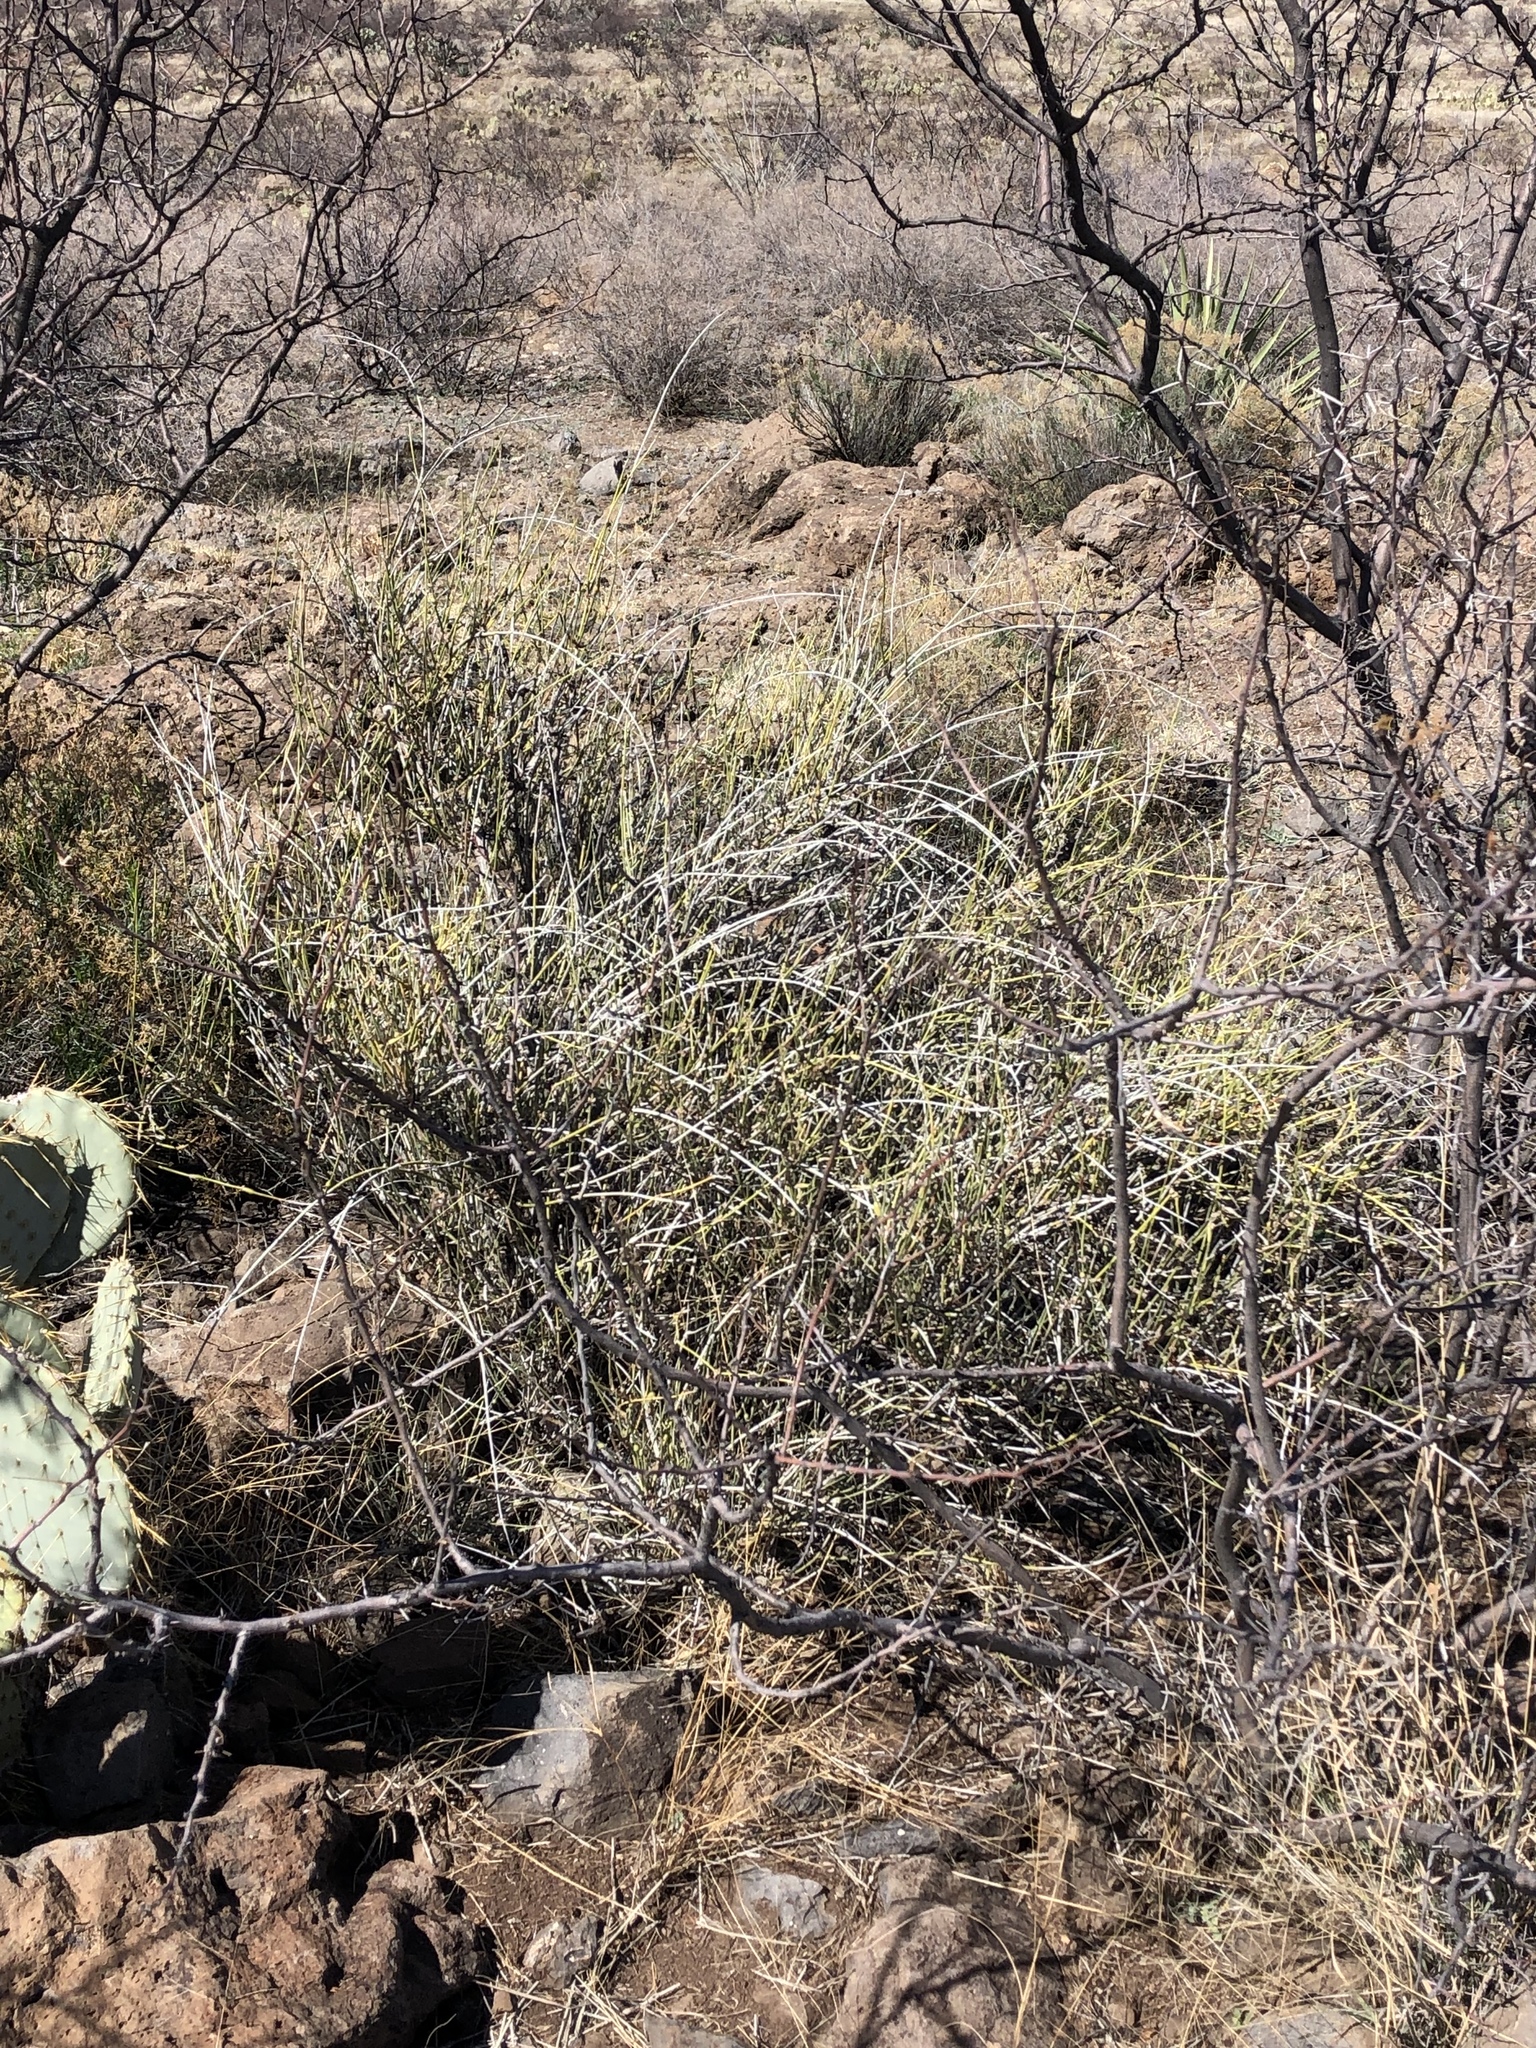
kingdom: Plantae
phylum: Tracheophyta
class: Gnetopsida
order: Ephedrales
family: Ephedraceae
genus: Ephedra
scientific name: Ephedra trifurca
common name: Mexican-tea
